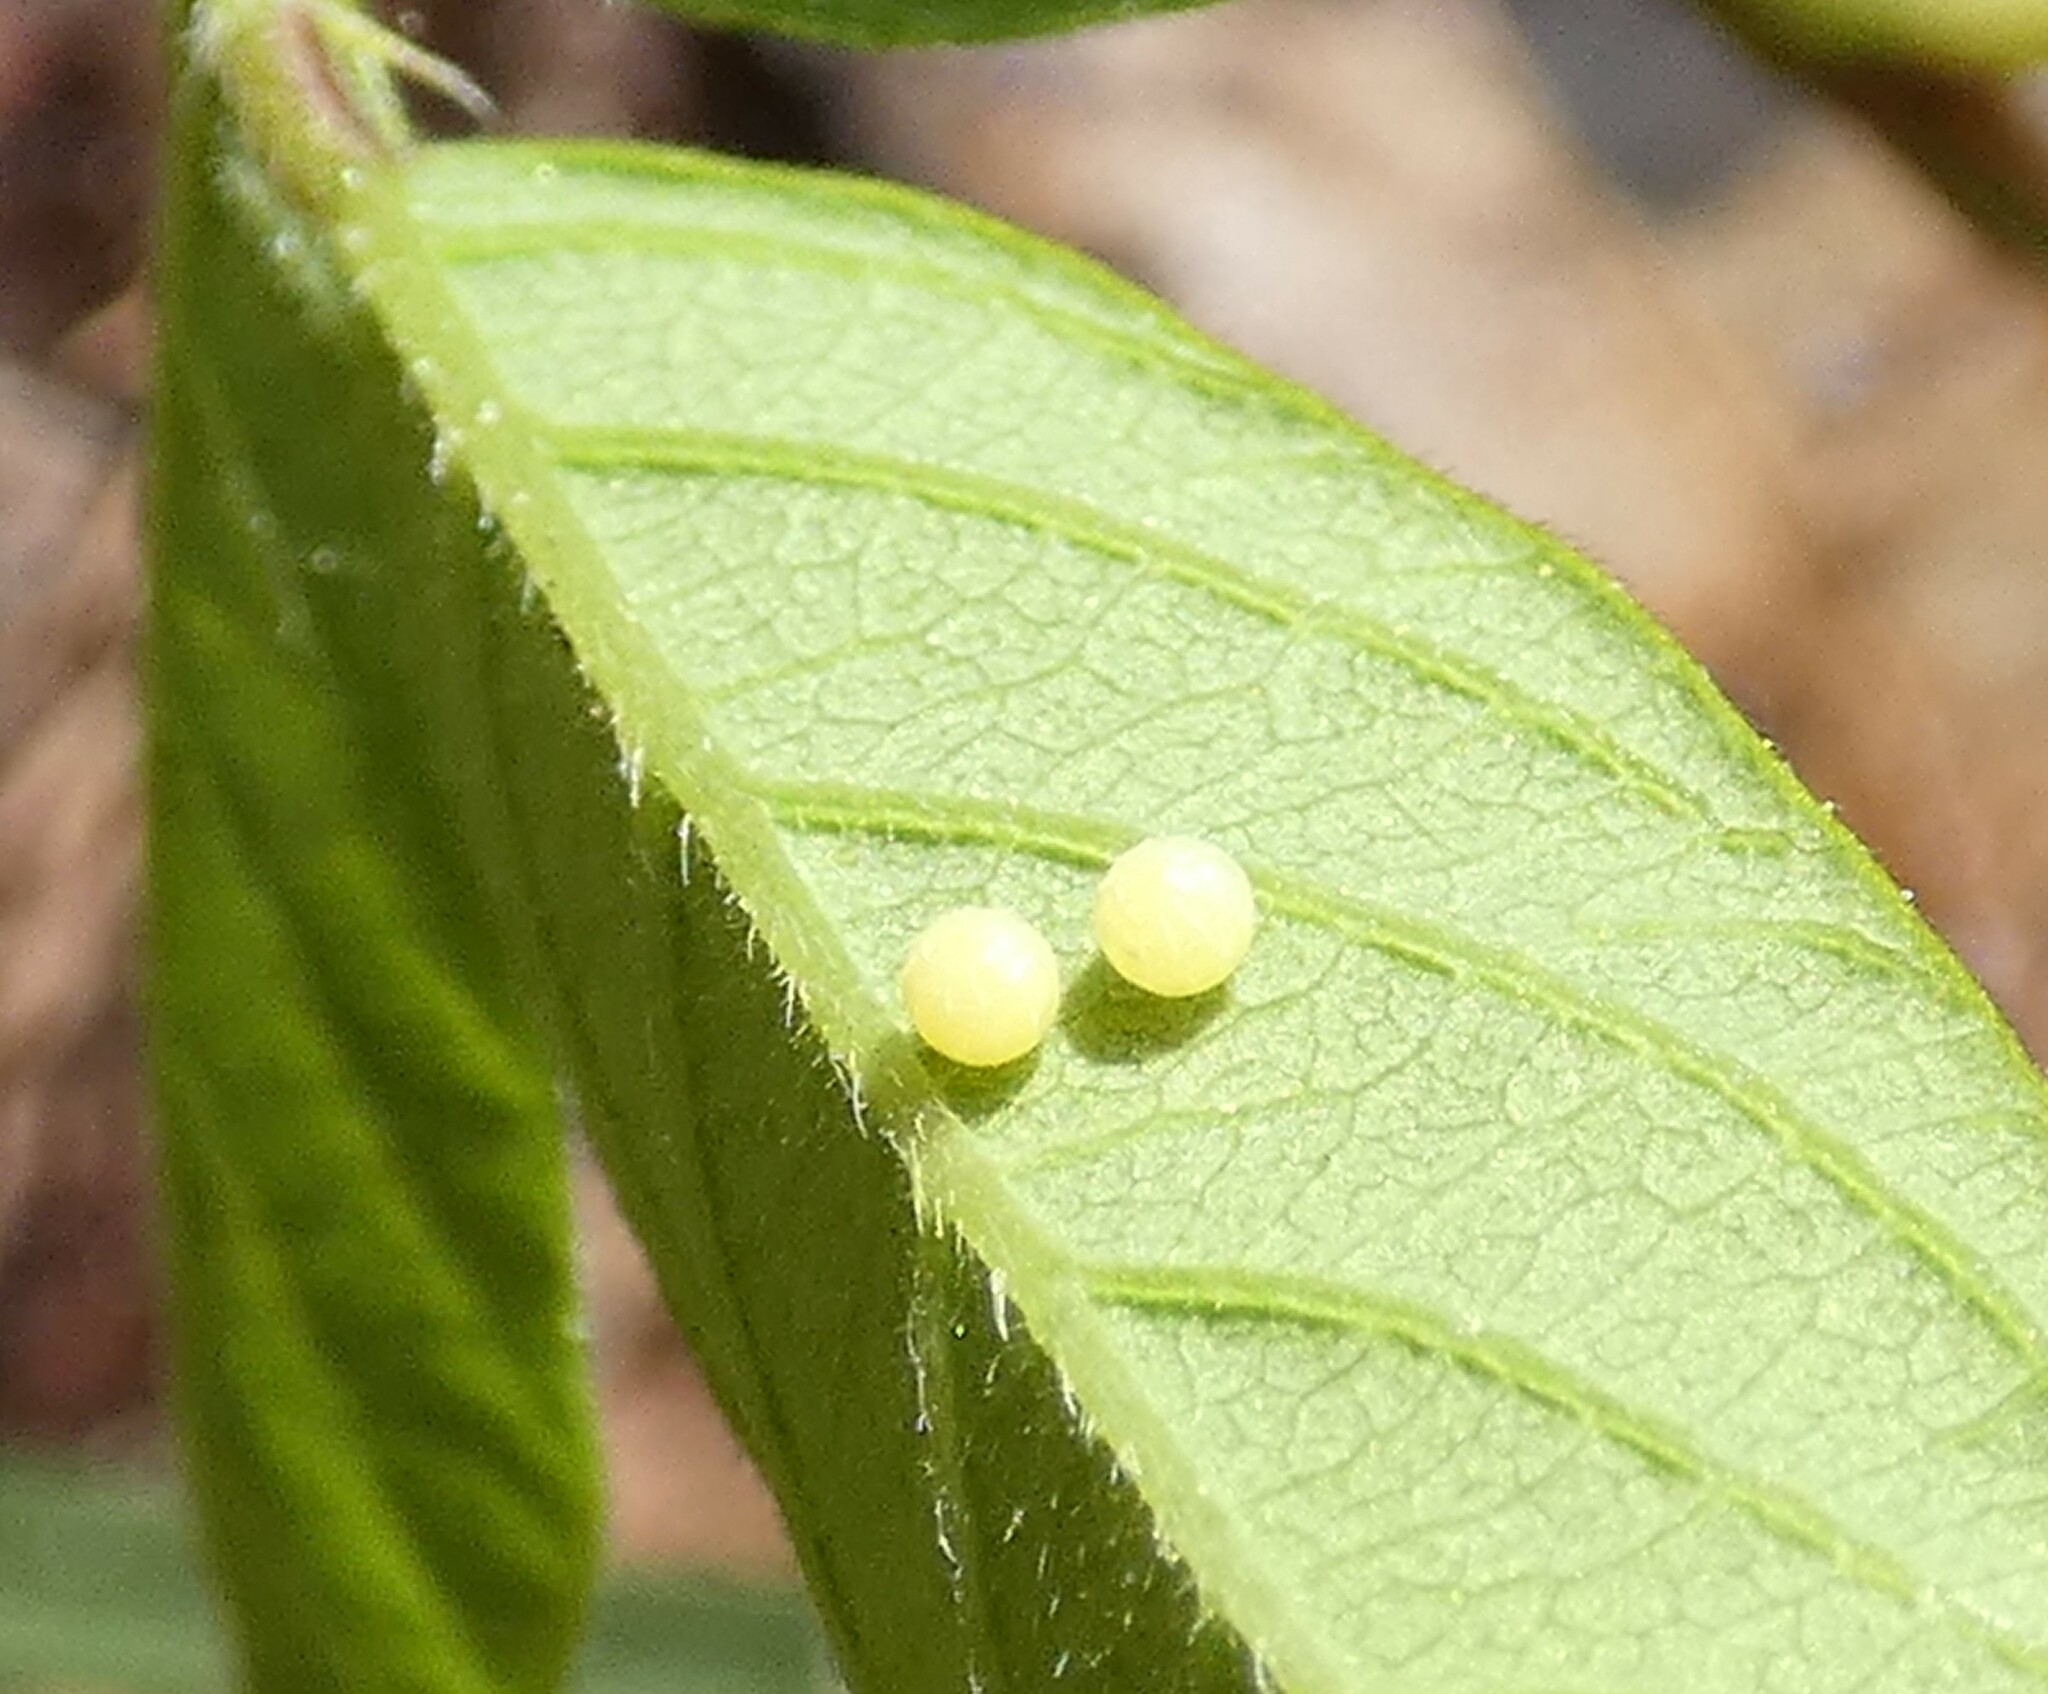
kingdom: Animalia
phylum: Arthropoda
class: Insecta
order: Lepidoptera
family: Hesperiidae
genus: Urbanus
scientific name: Urbanus proteus
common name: Long-tailed skipper
